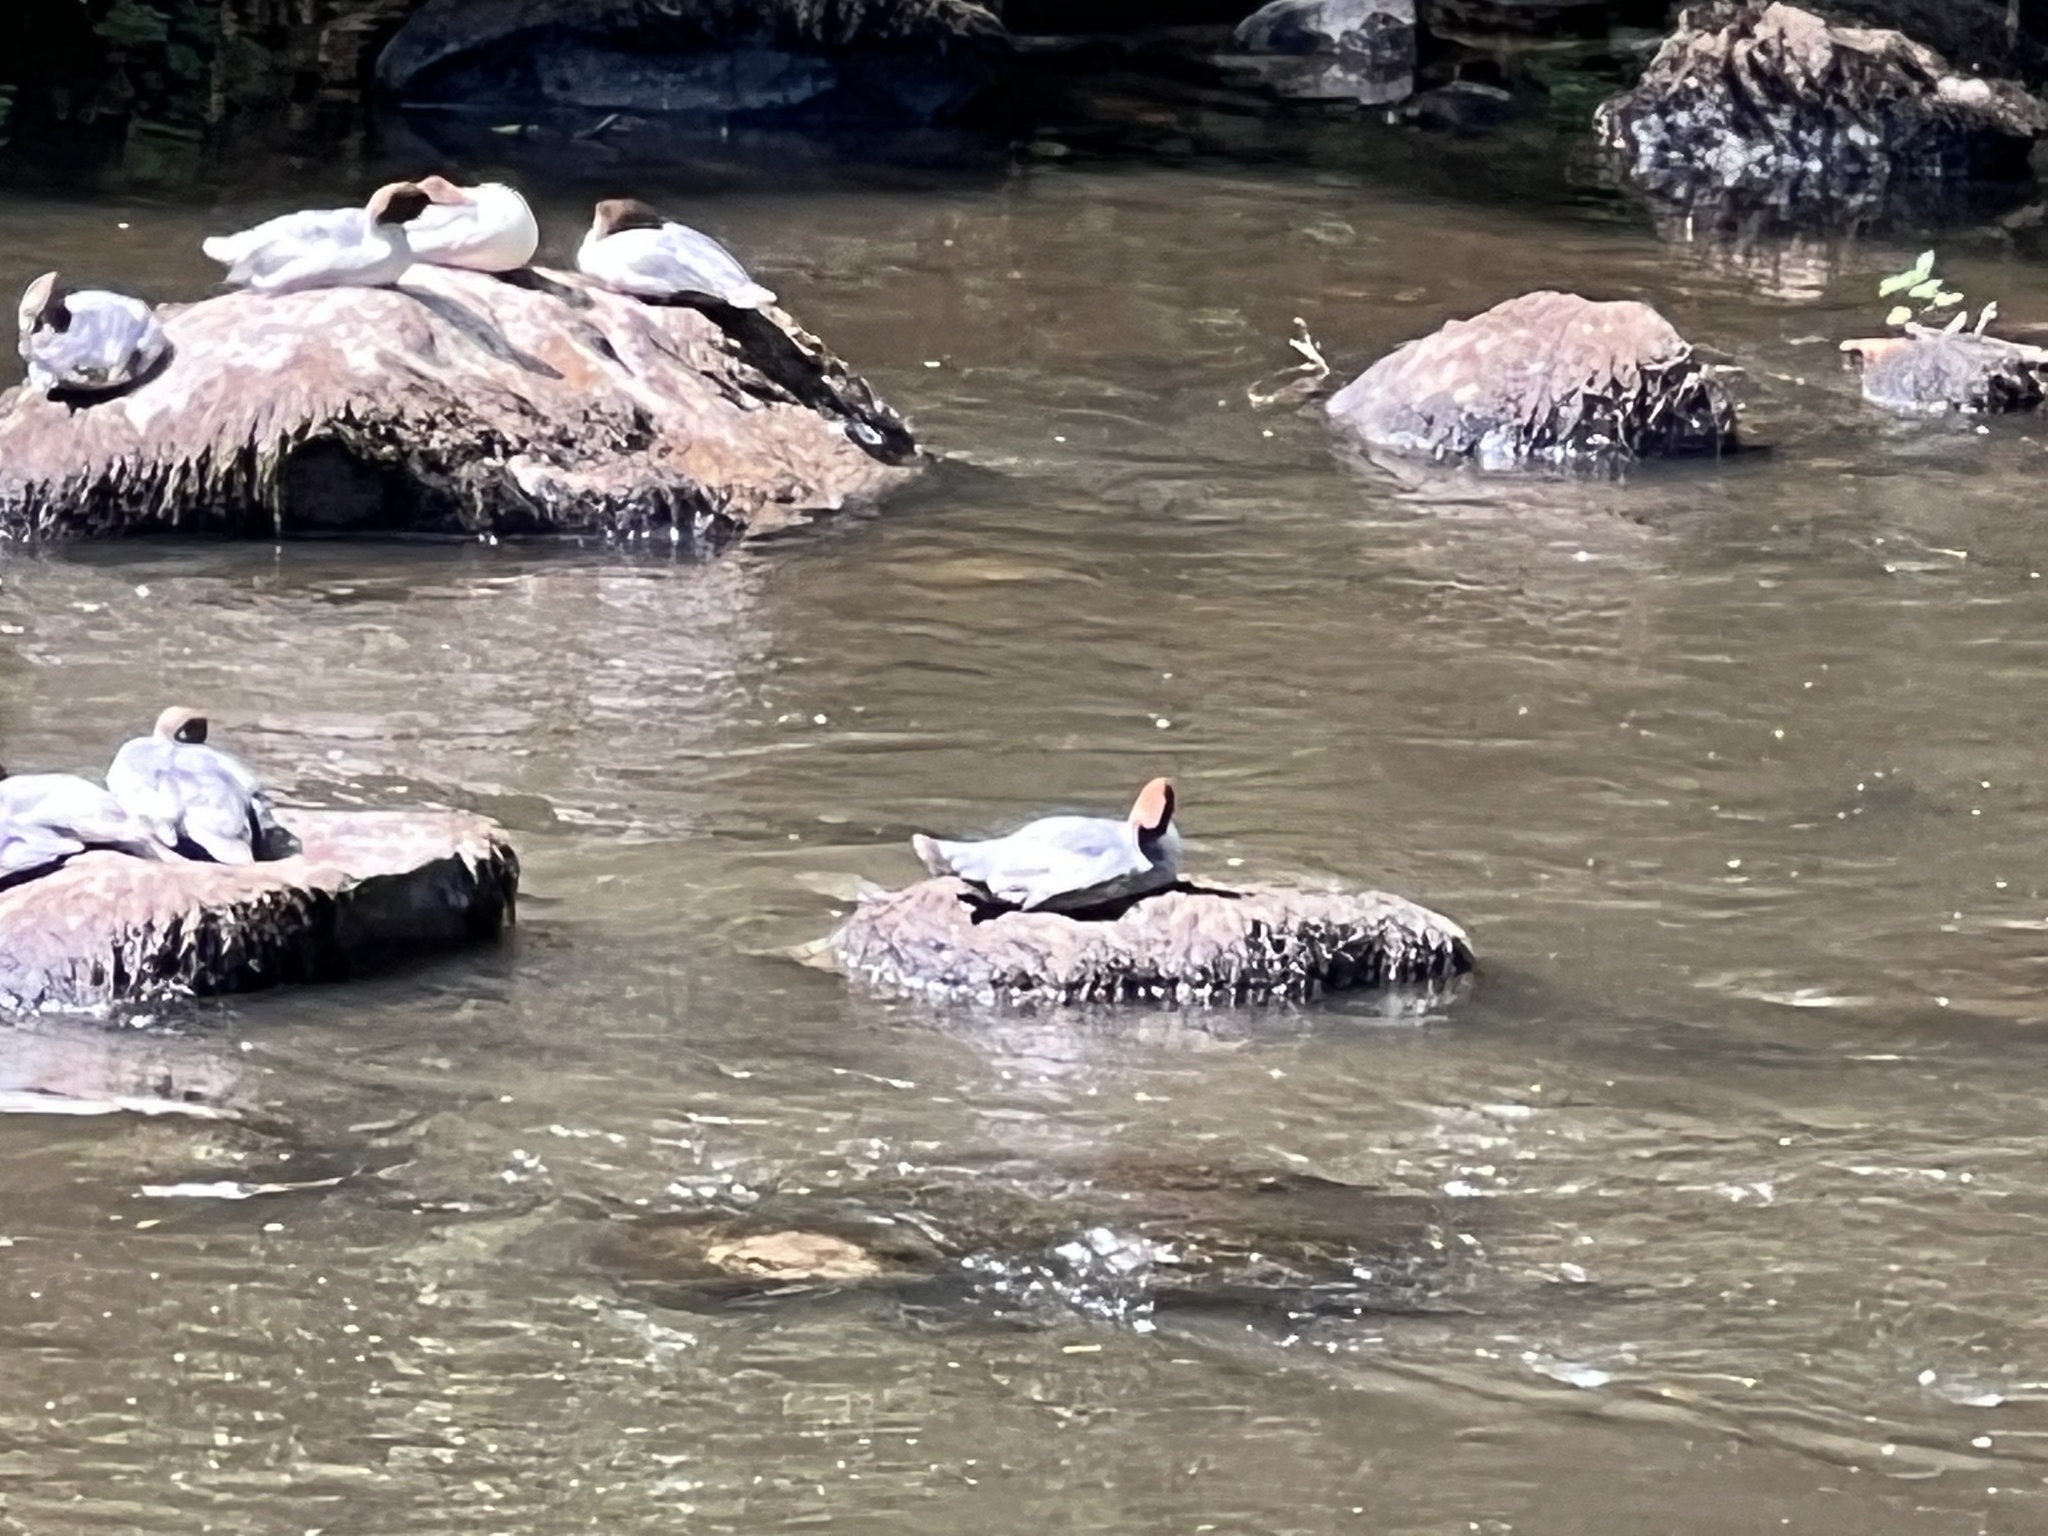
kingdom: Animalia
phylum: Chordata
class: Aves
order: Anseriformes
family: Anatidae
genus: Mergus
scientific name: Mergus merganser
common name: Common merganser
